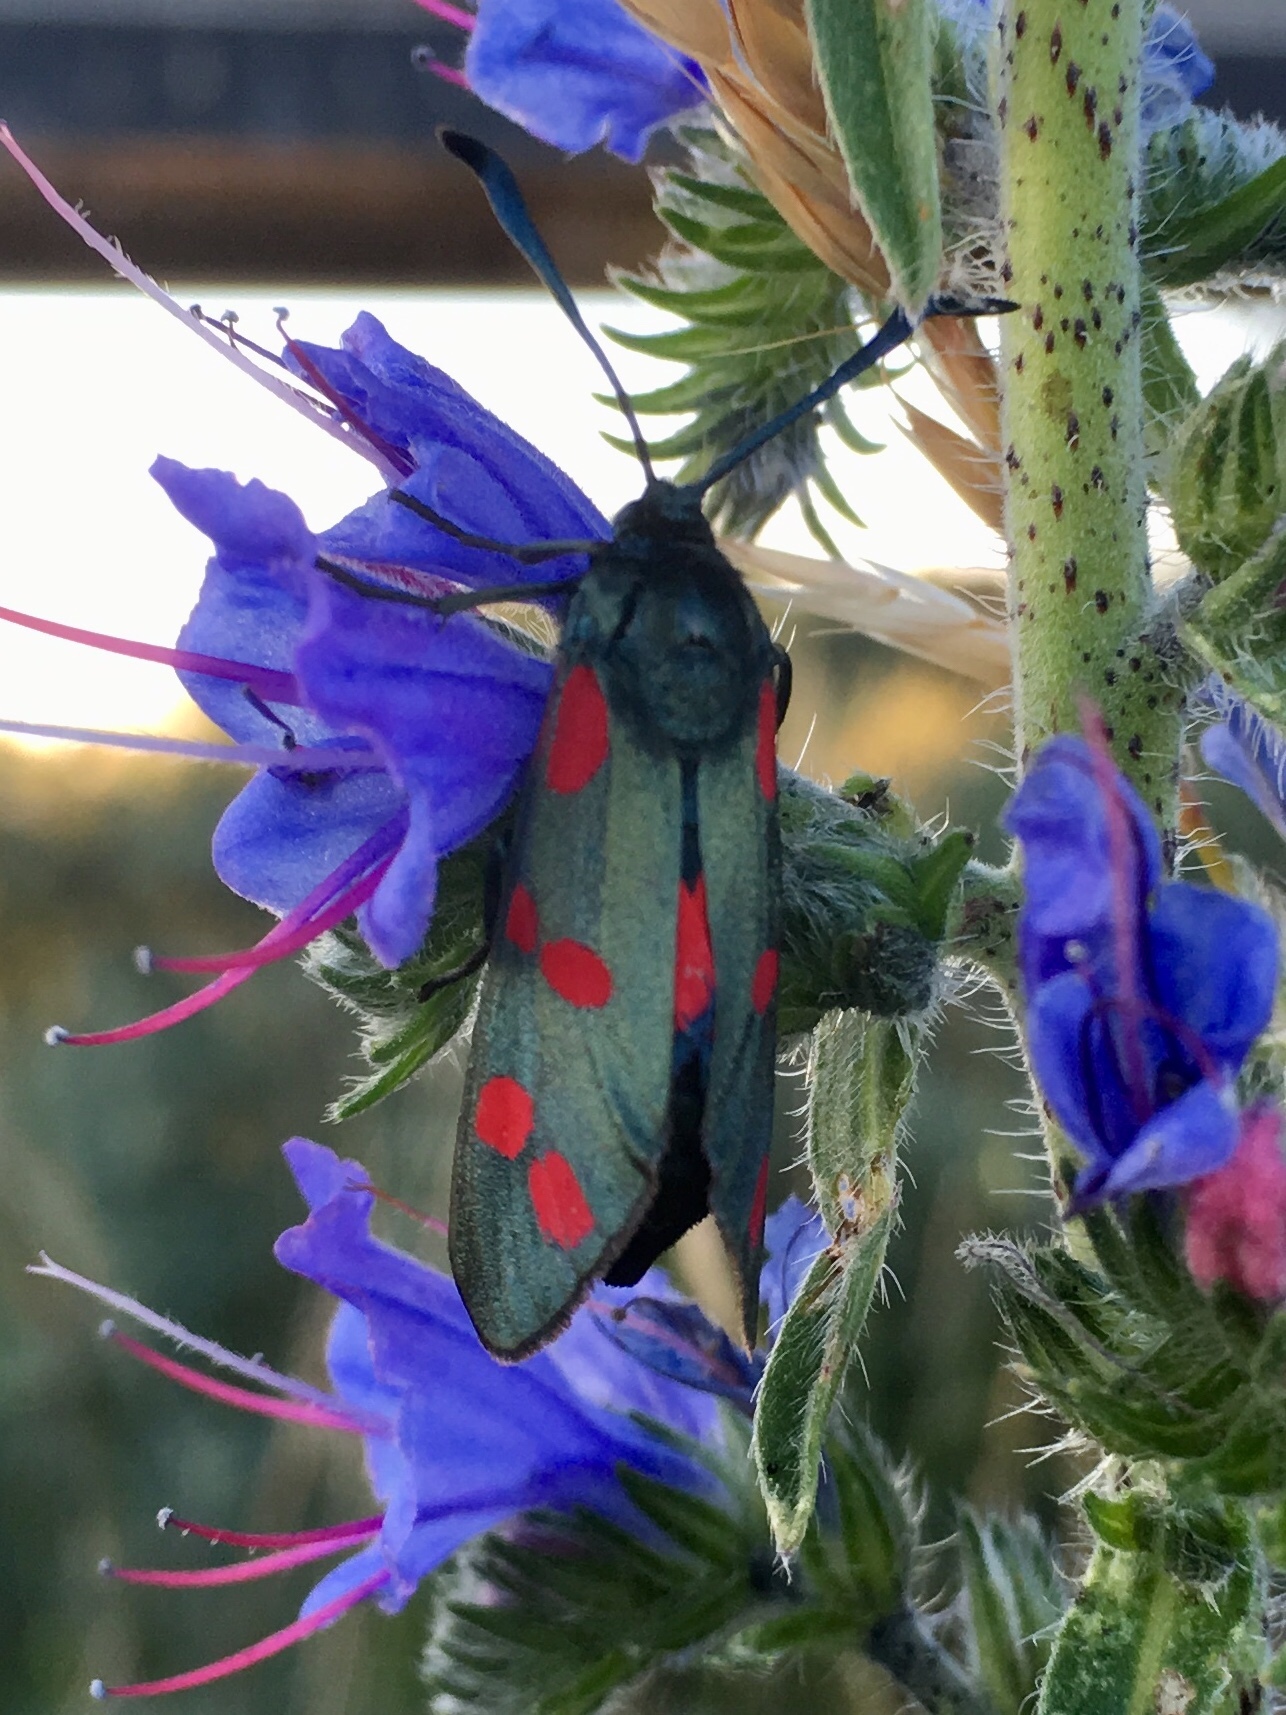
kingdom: Animalia
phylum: Arthropoda
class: Insecta
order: Lepidoptera
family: Zygaenidae
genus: Zygaena
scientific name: Zygaena filipendulae
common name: Six-spot burnet
